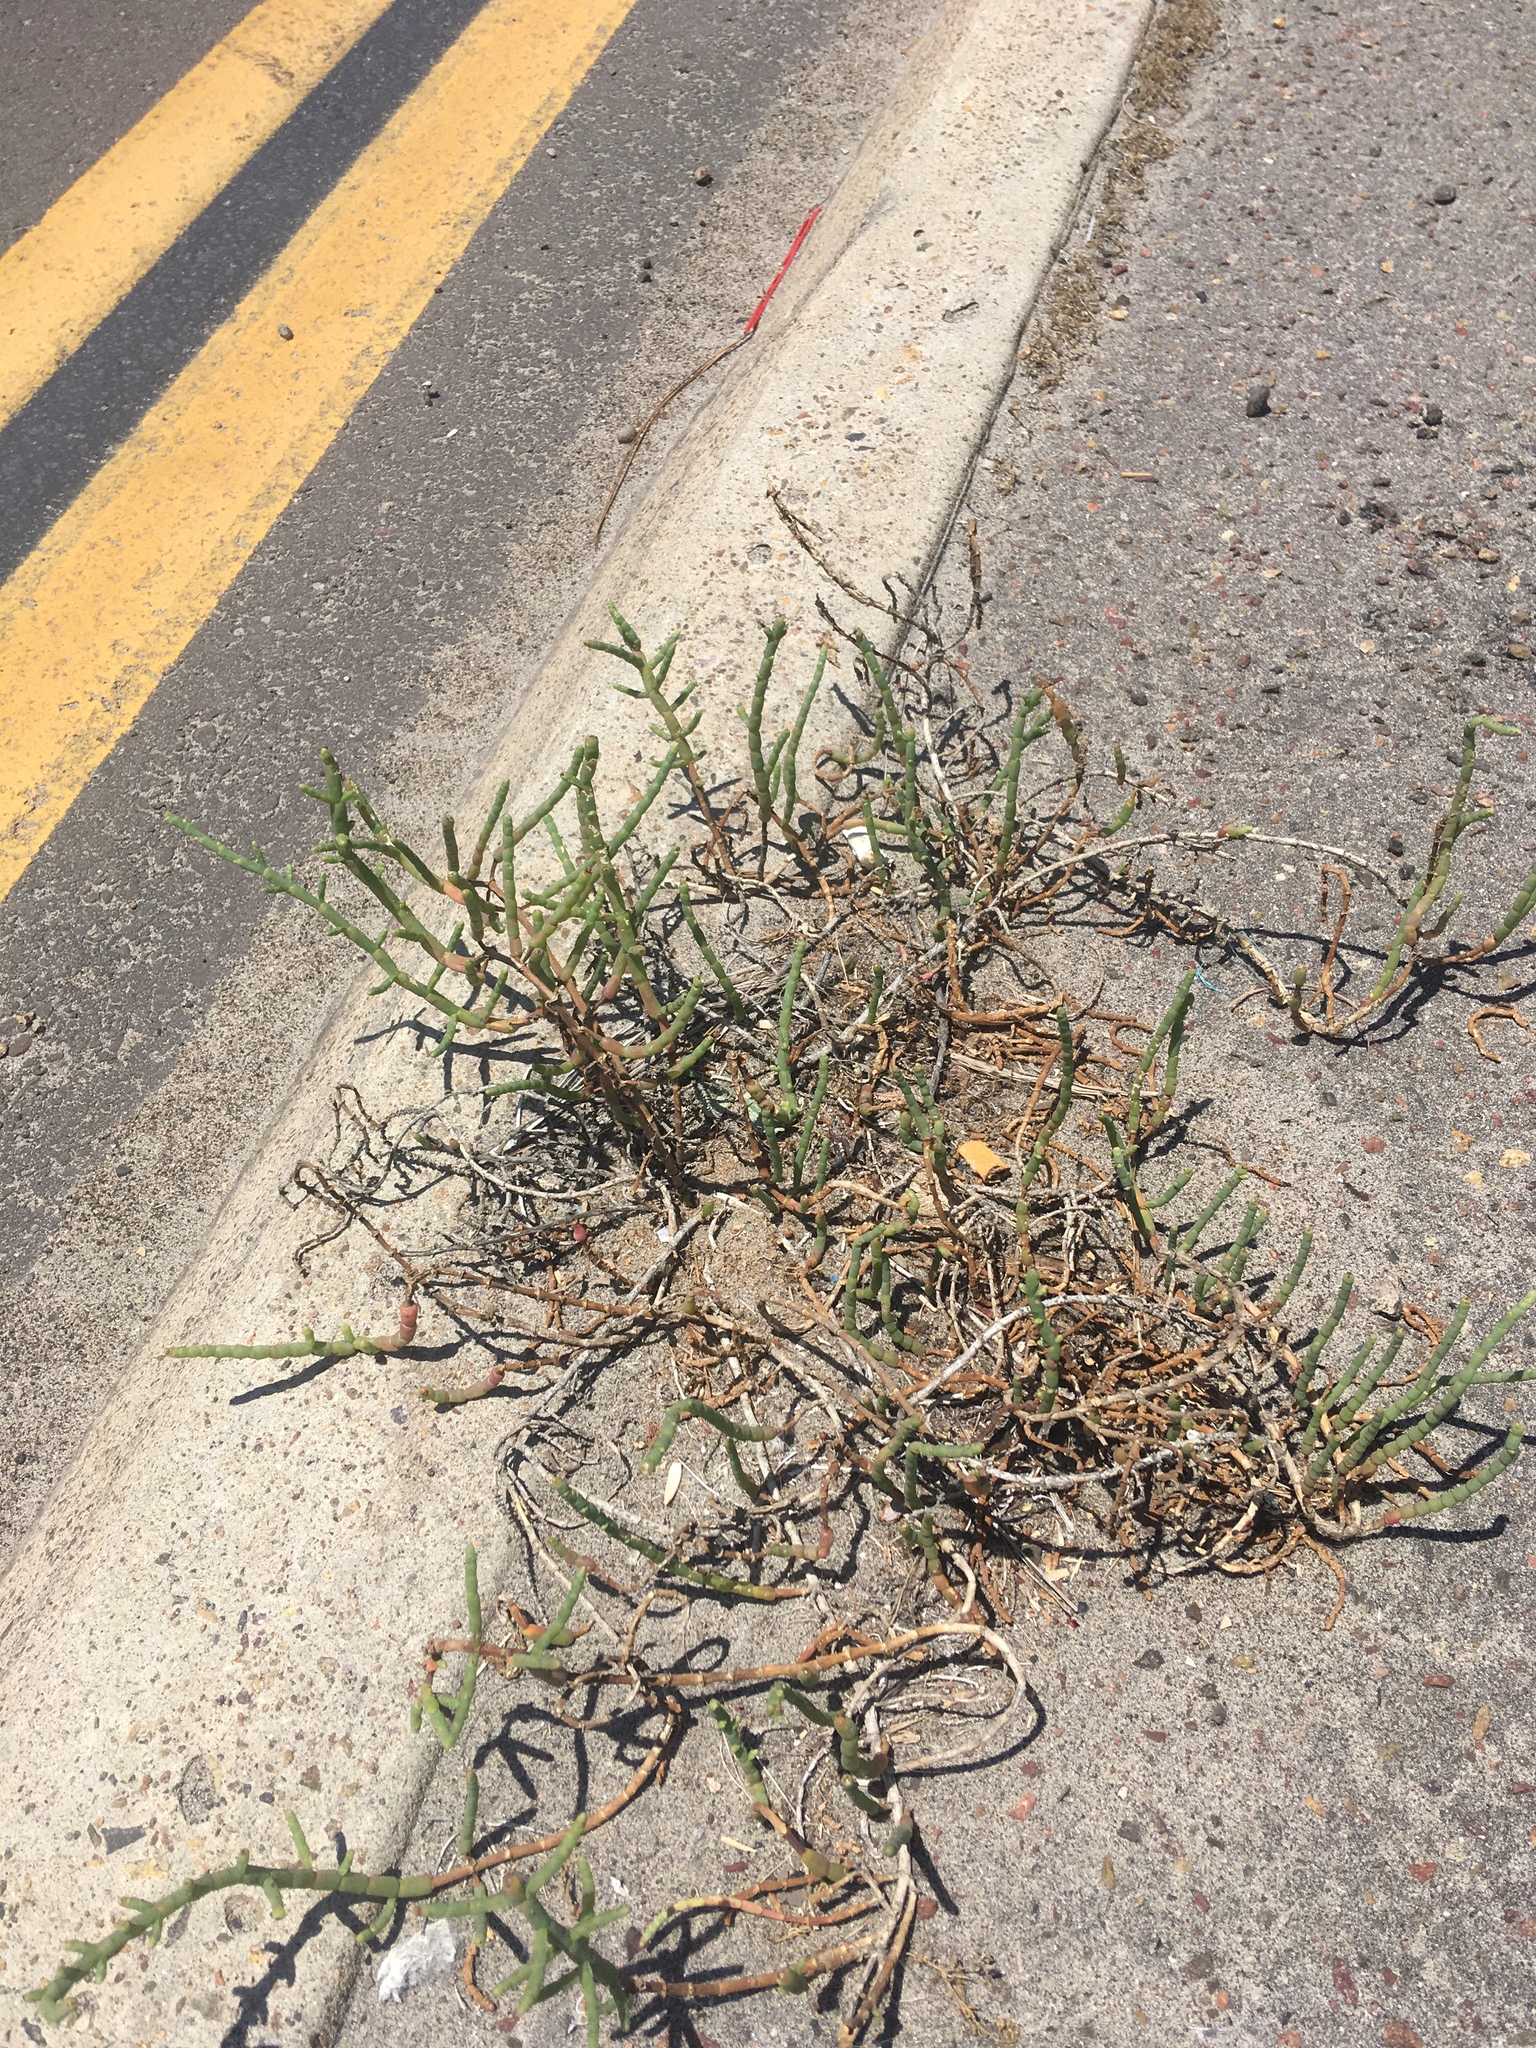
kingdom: Plantae
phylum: Tracheophyta
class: Magnoliopsida
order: Caryophyllales
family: Amaranthaceae
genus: Salicornia
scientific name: Salicornia pacifica
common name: Pacific glasswort
